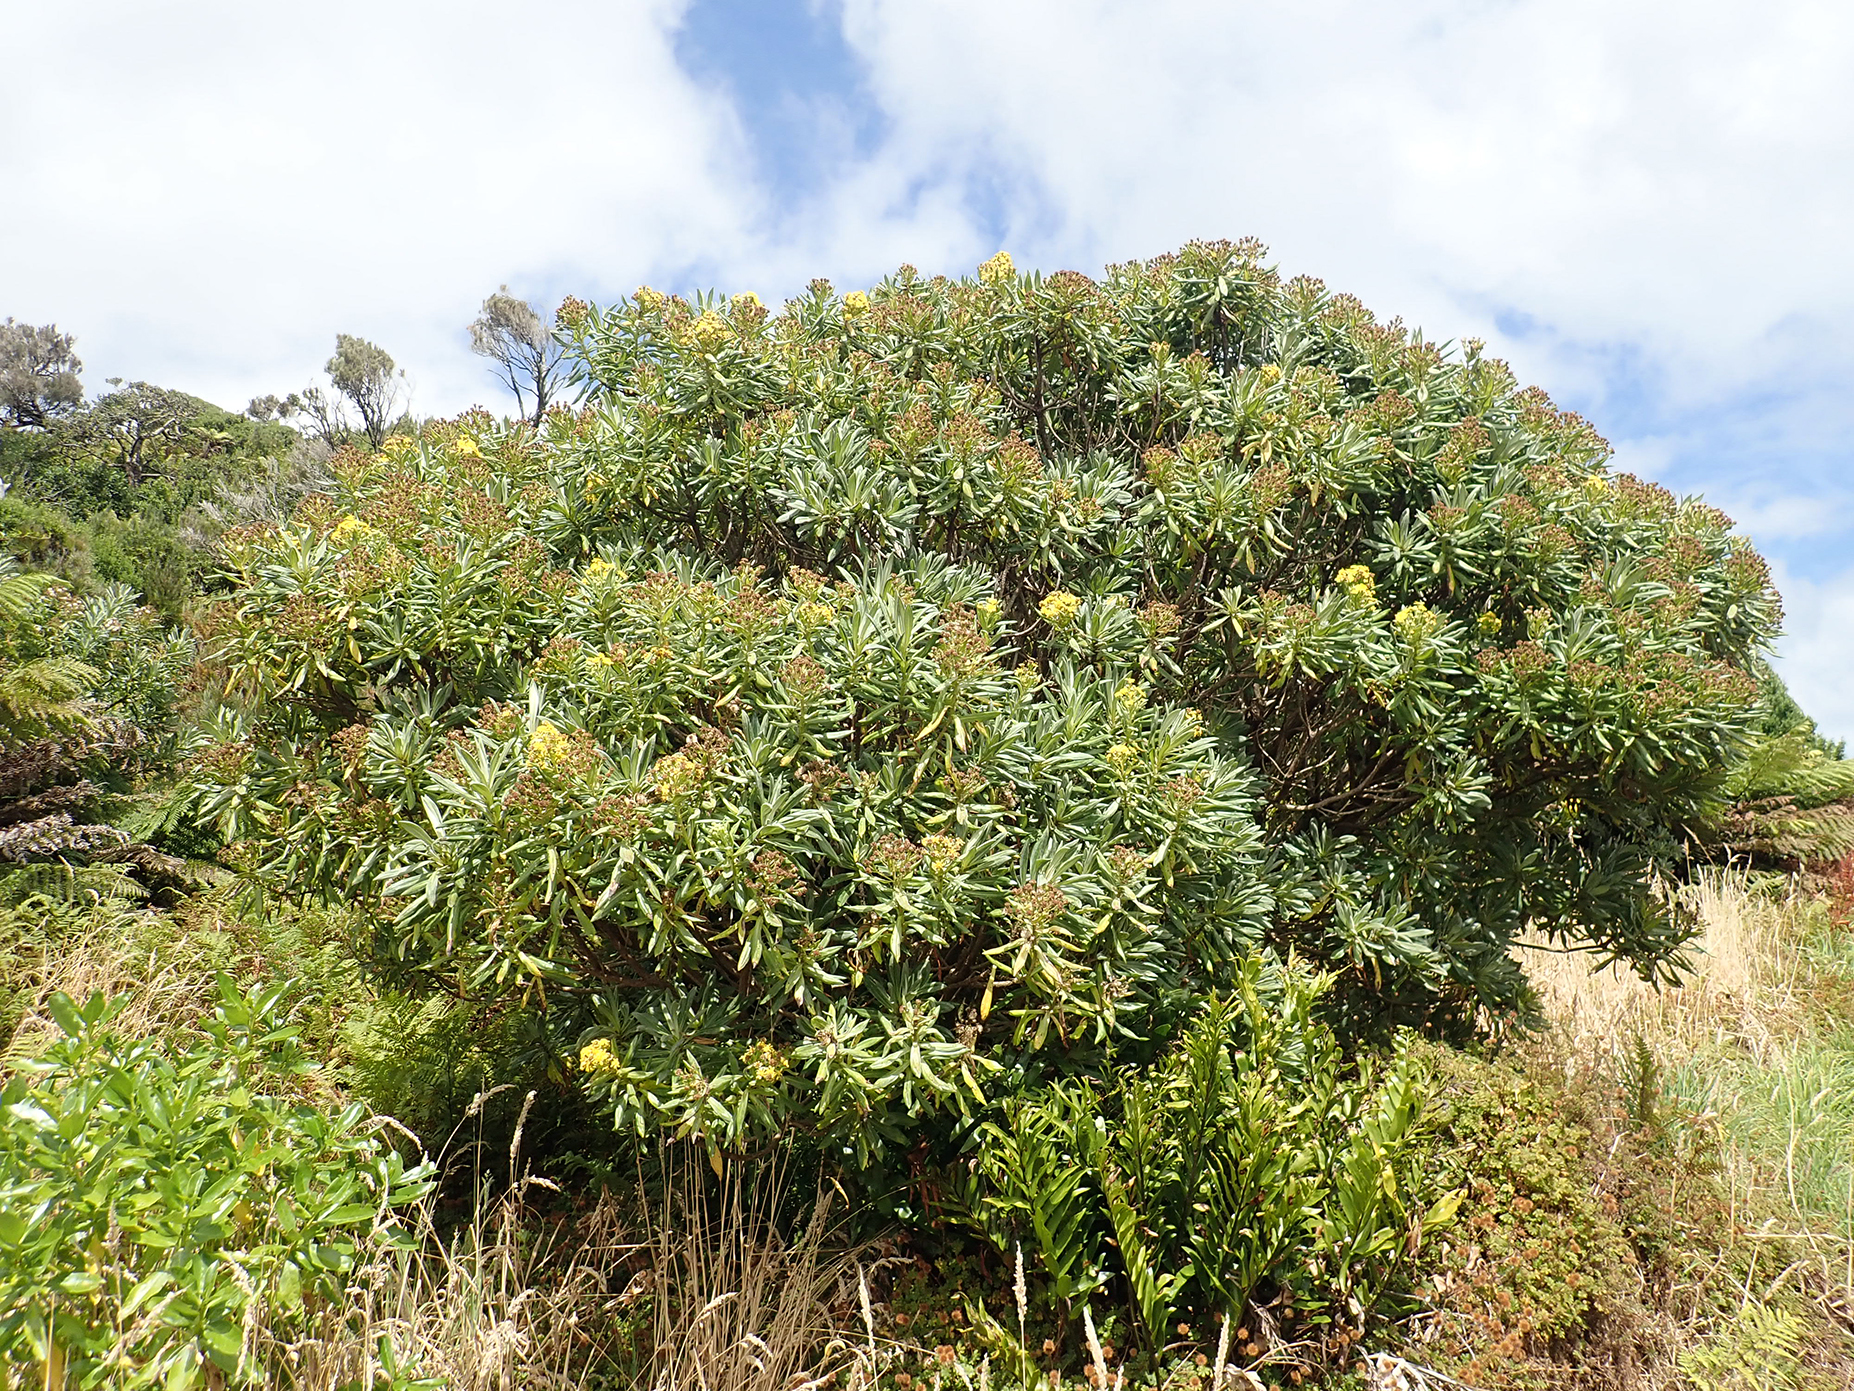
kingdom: Plantae
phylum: Tracheophyta
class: Magnoliopsida
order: Asterales
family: Asteraceae
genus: Brachyglottis
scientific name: Brachyglottis huntii
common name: Chatham island christmas tree
